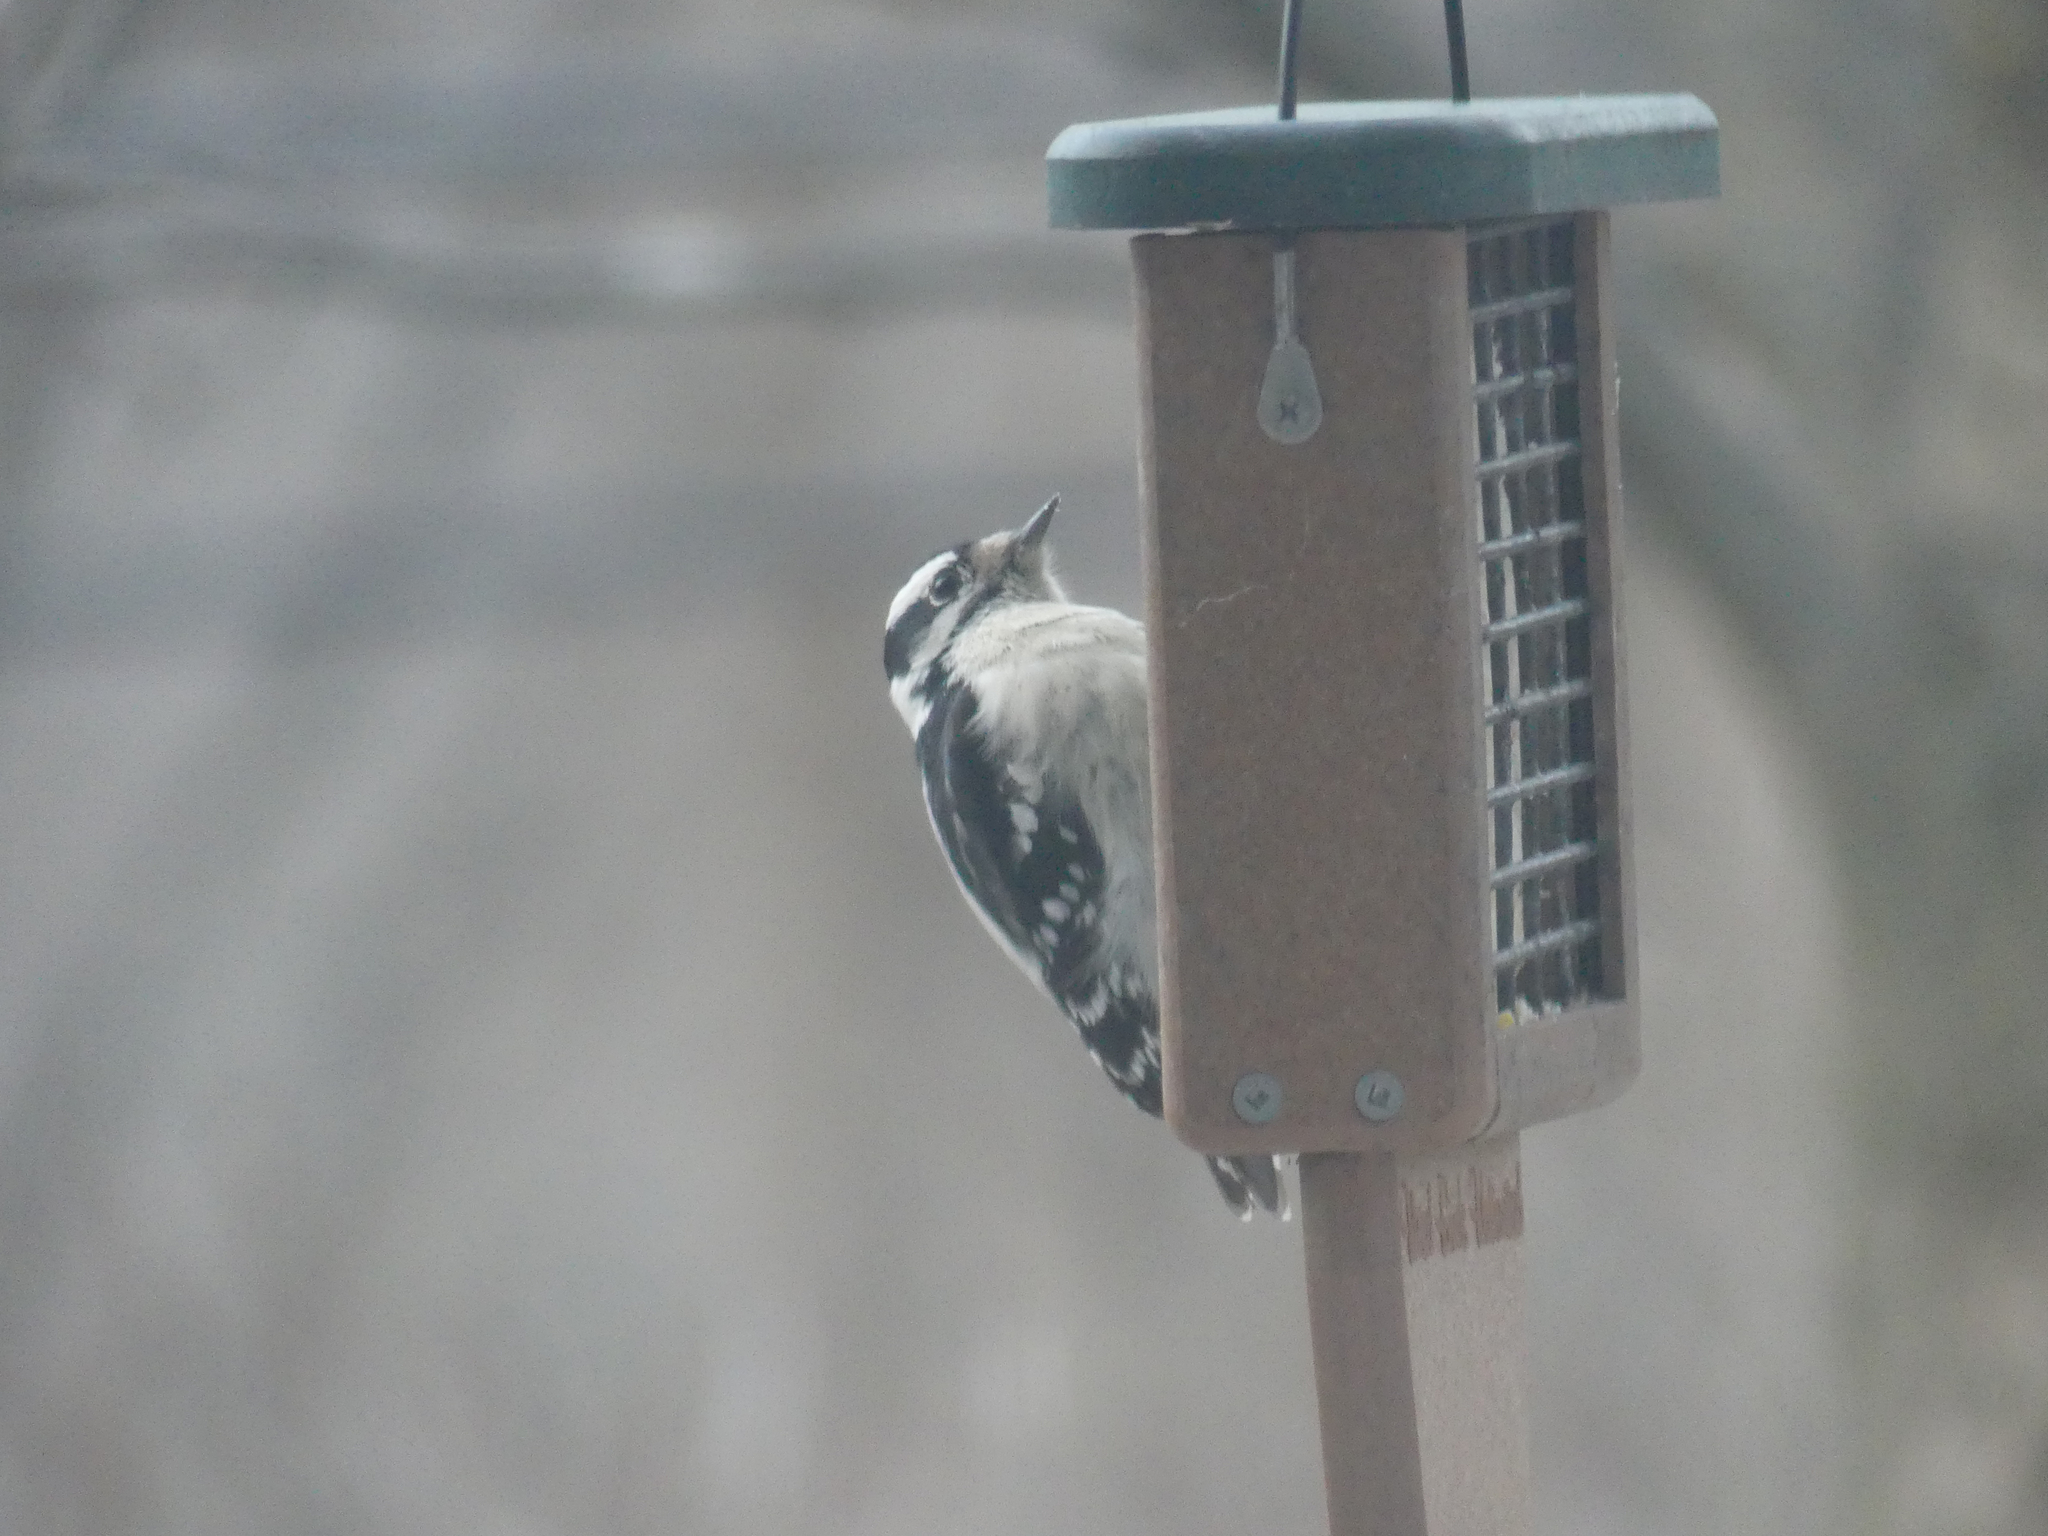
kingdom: Animalia
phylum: Chordata
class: Aves
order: Piciformes
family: Picidae
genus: Dryobates
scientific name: Dryobates pubescens
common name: Downy woodpecker
